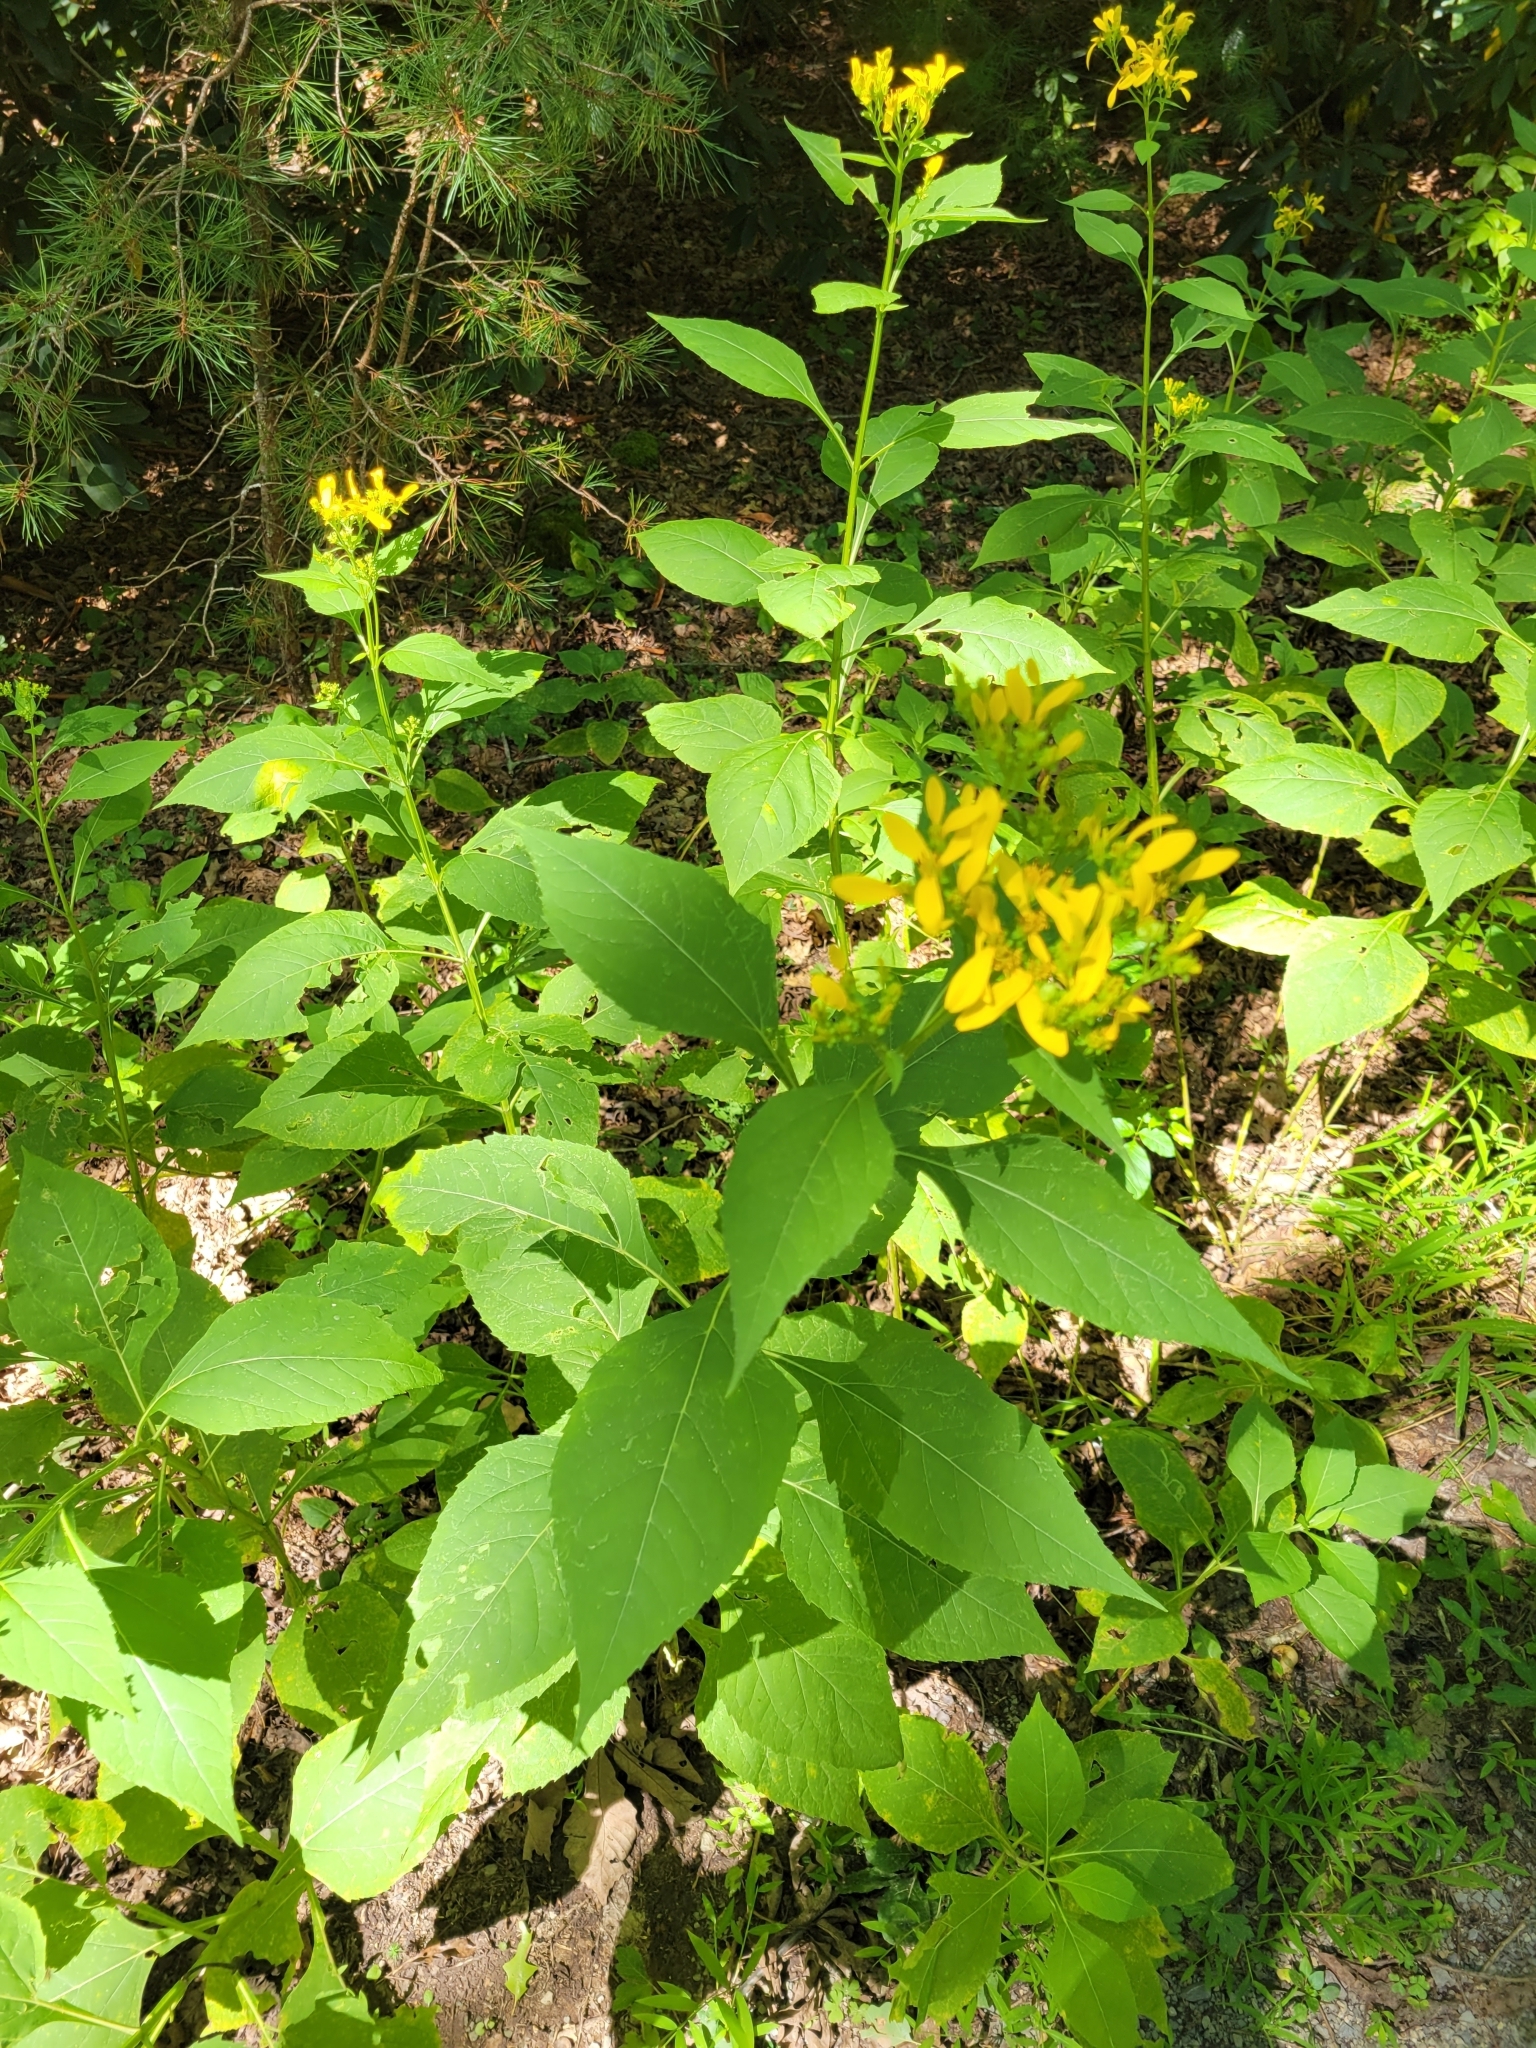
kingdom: Plantae
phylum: Tracheophyta
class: Magnoliopsida
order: Asterales
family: Asteraceae
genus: Verbesina
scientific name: Verbesina occidentalis
